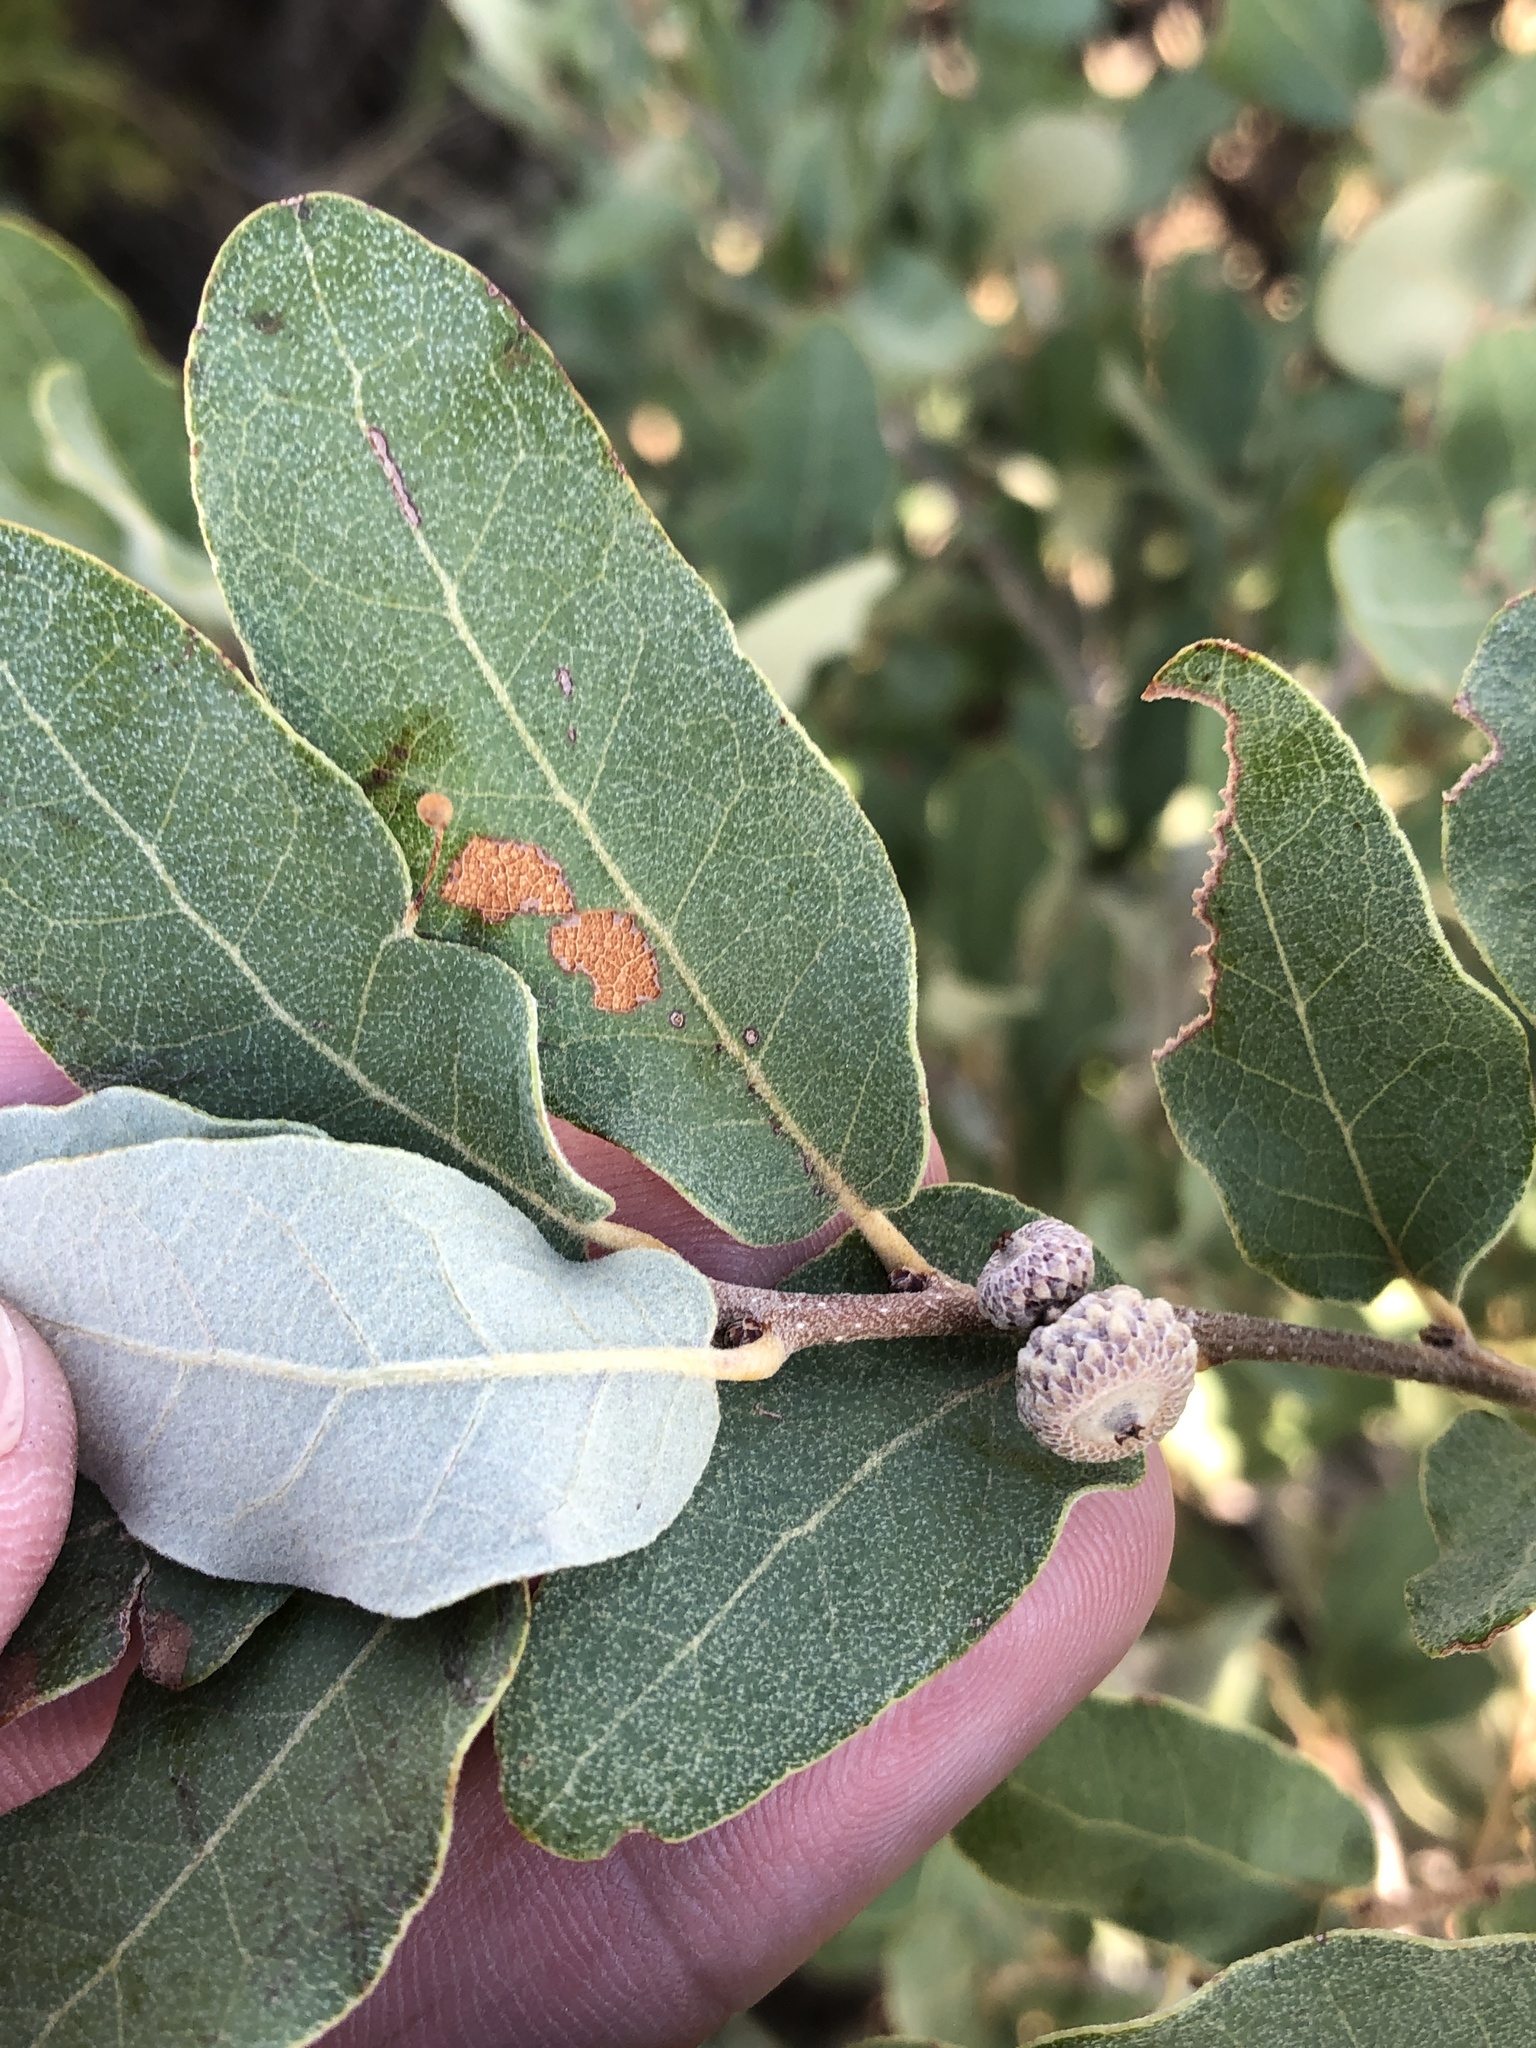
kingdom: Plantae
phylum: Tracheophyta
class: Magnoliopsida
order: Fagales
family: Fagaceae
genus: Quercus
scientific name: Quercus mohriana
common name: Mohr oak
